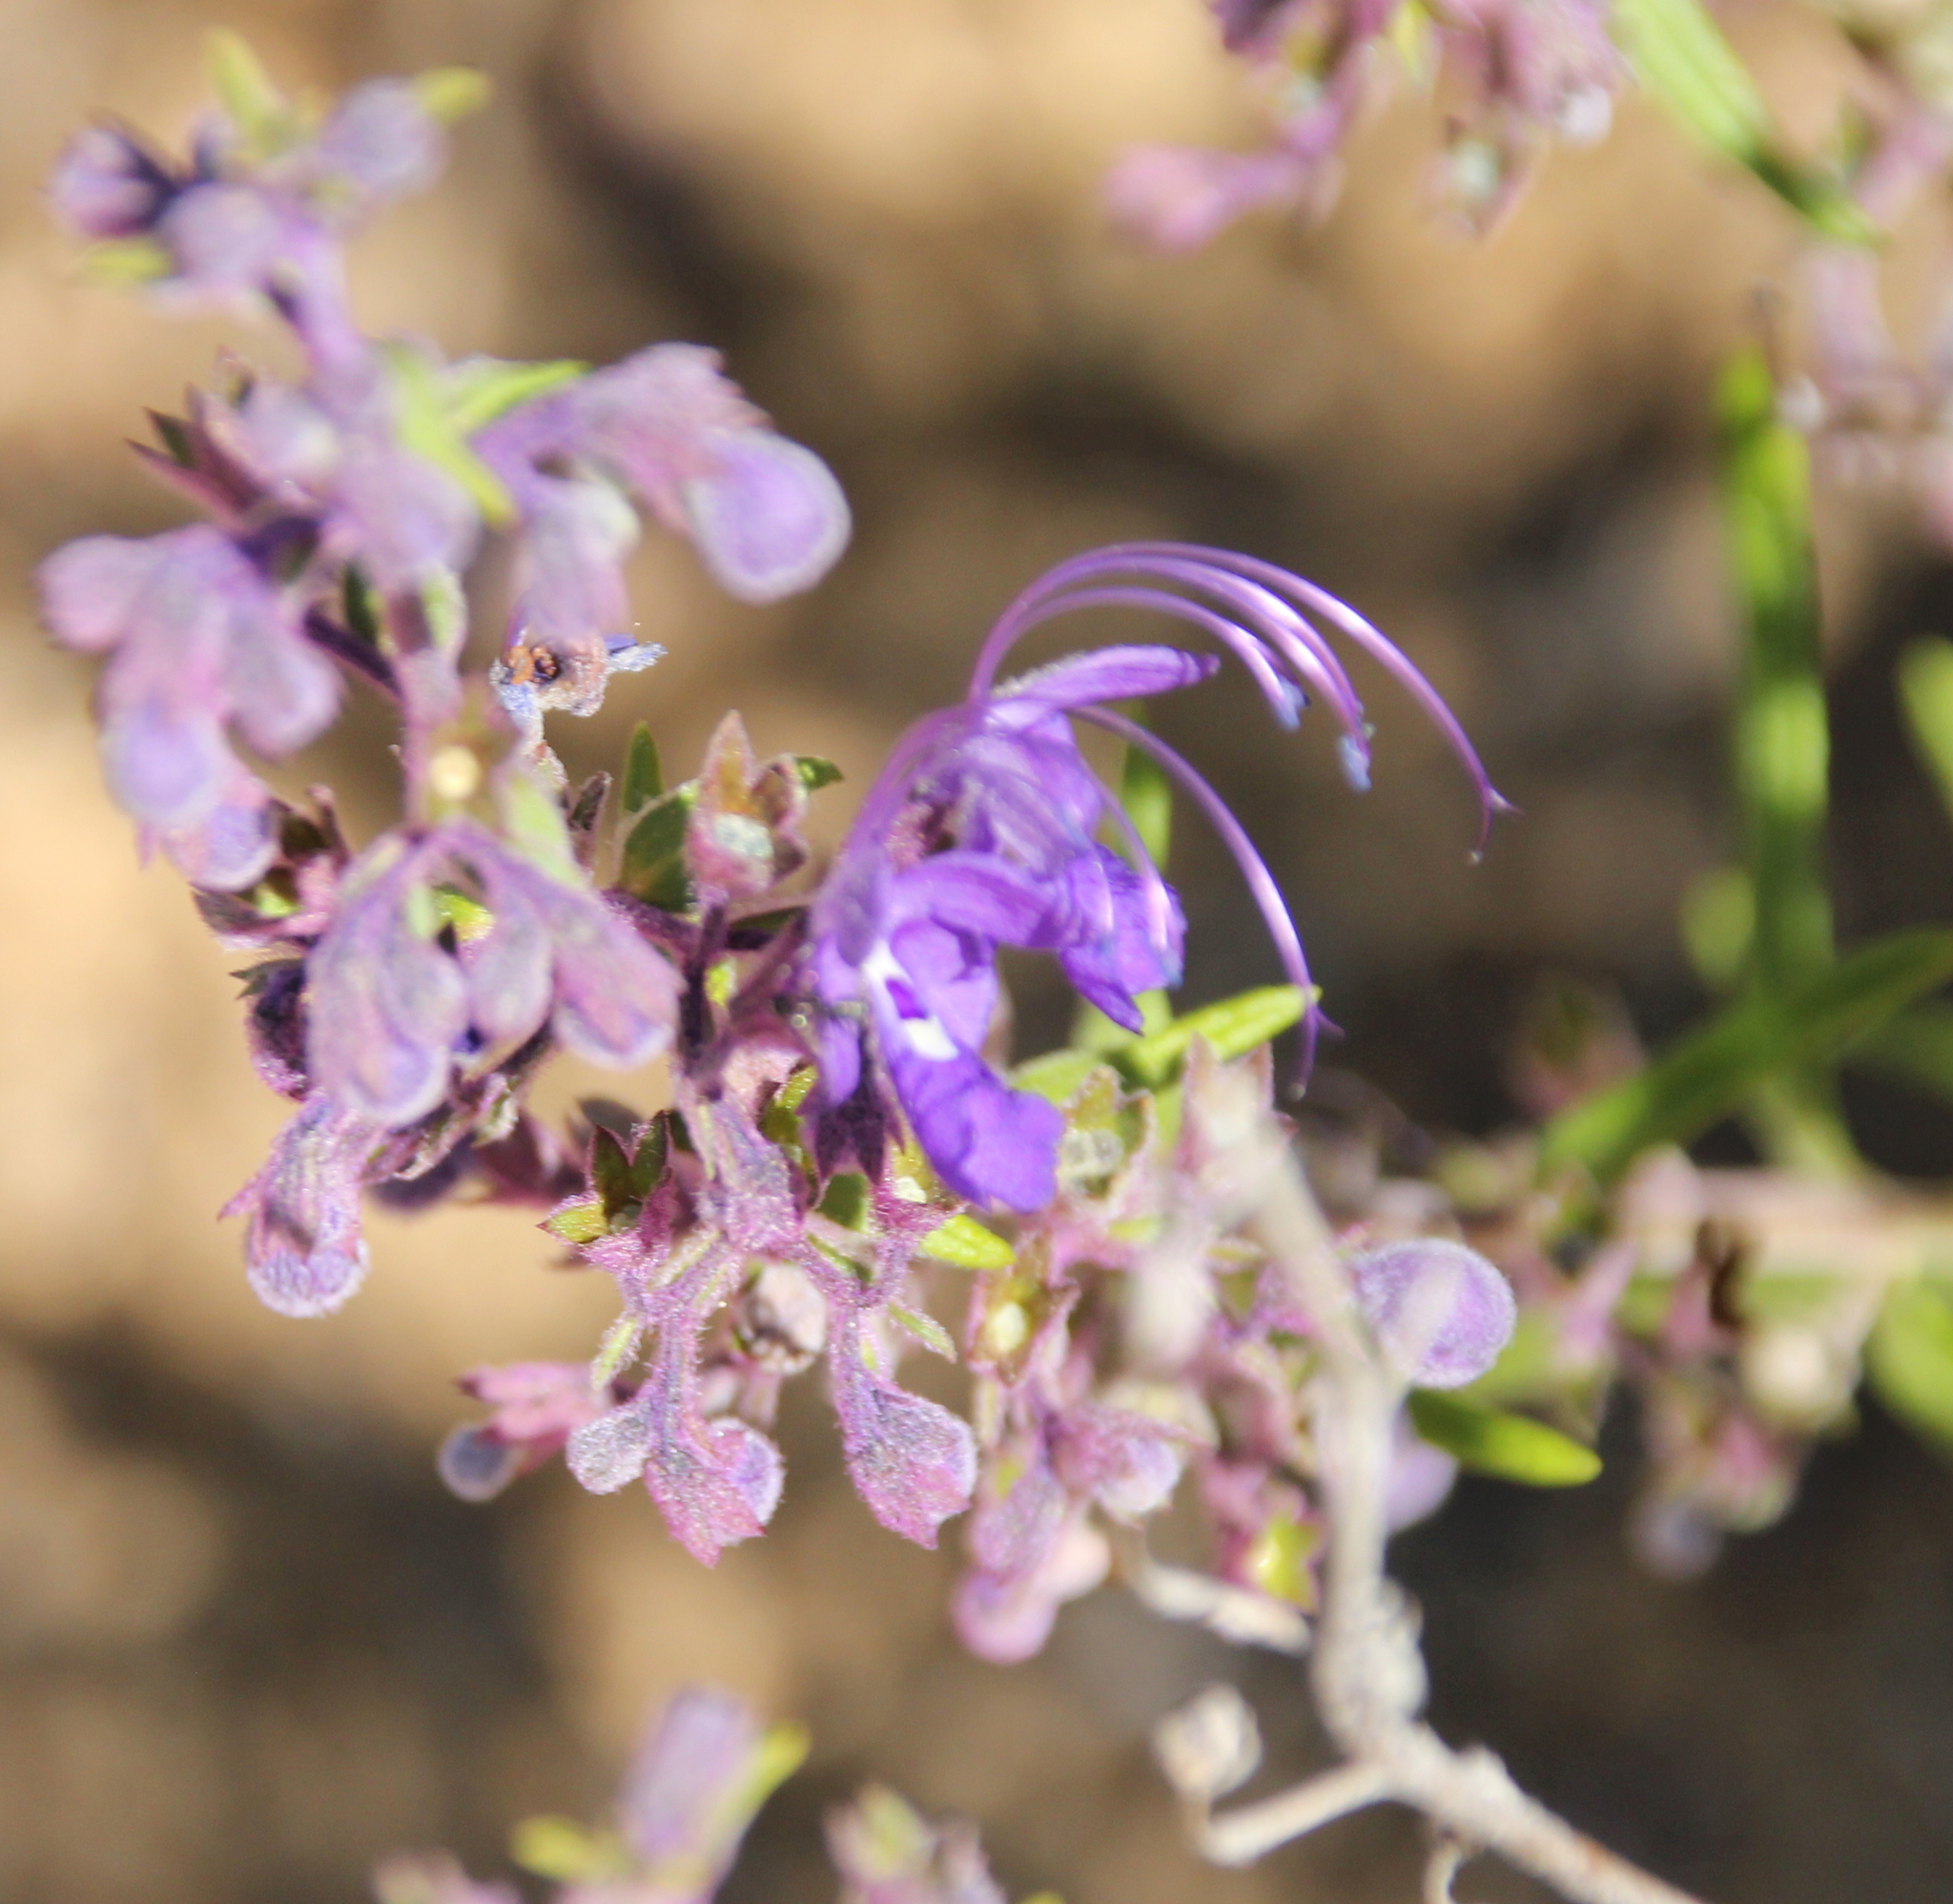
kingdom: Plantae
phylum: Tracheophyta
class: Magnoliopsida
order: Lamiales
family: Lamiaceae
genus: Trichostema
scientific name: Trichostema parishii
